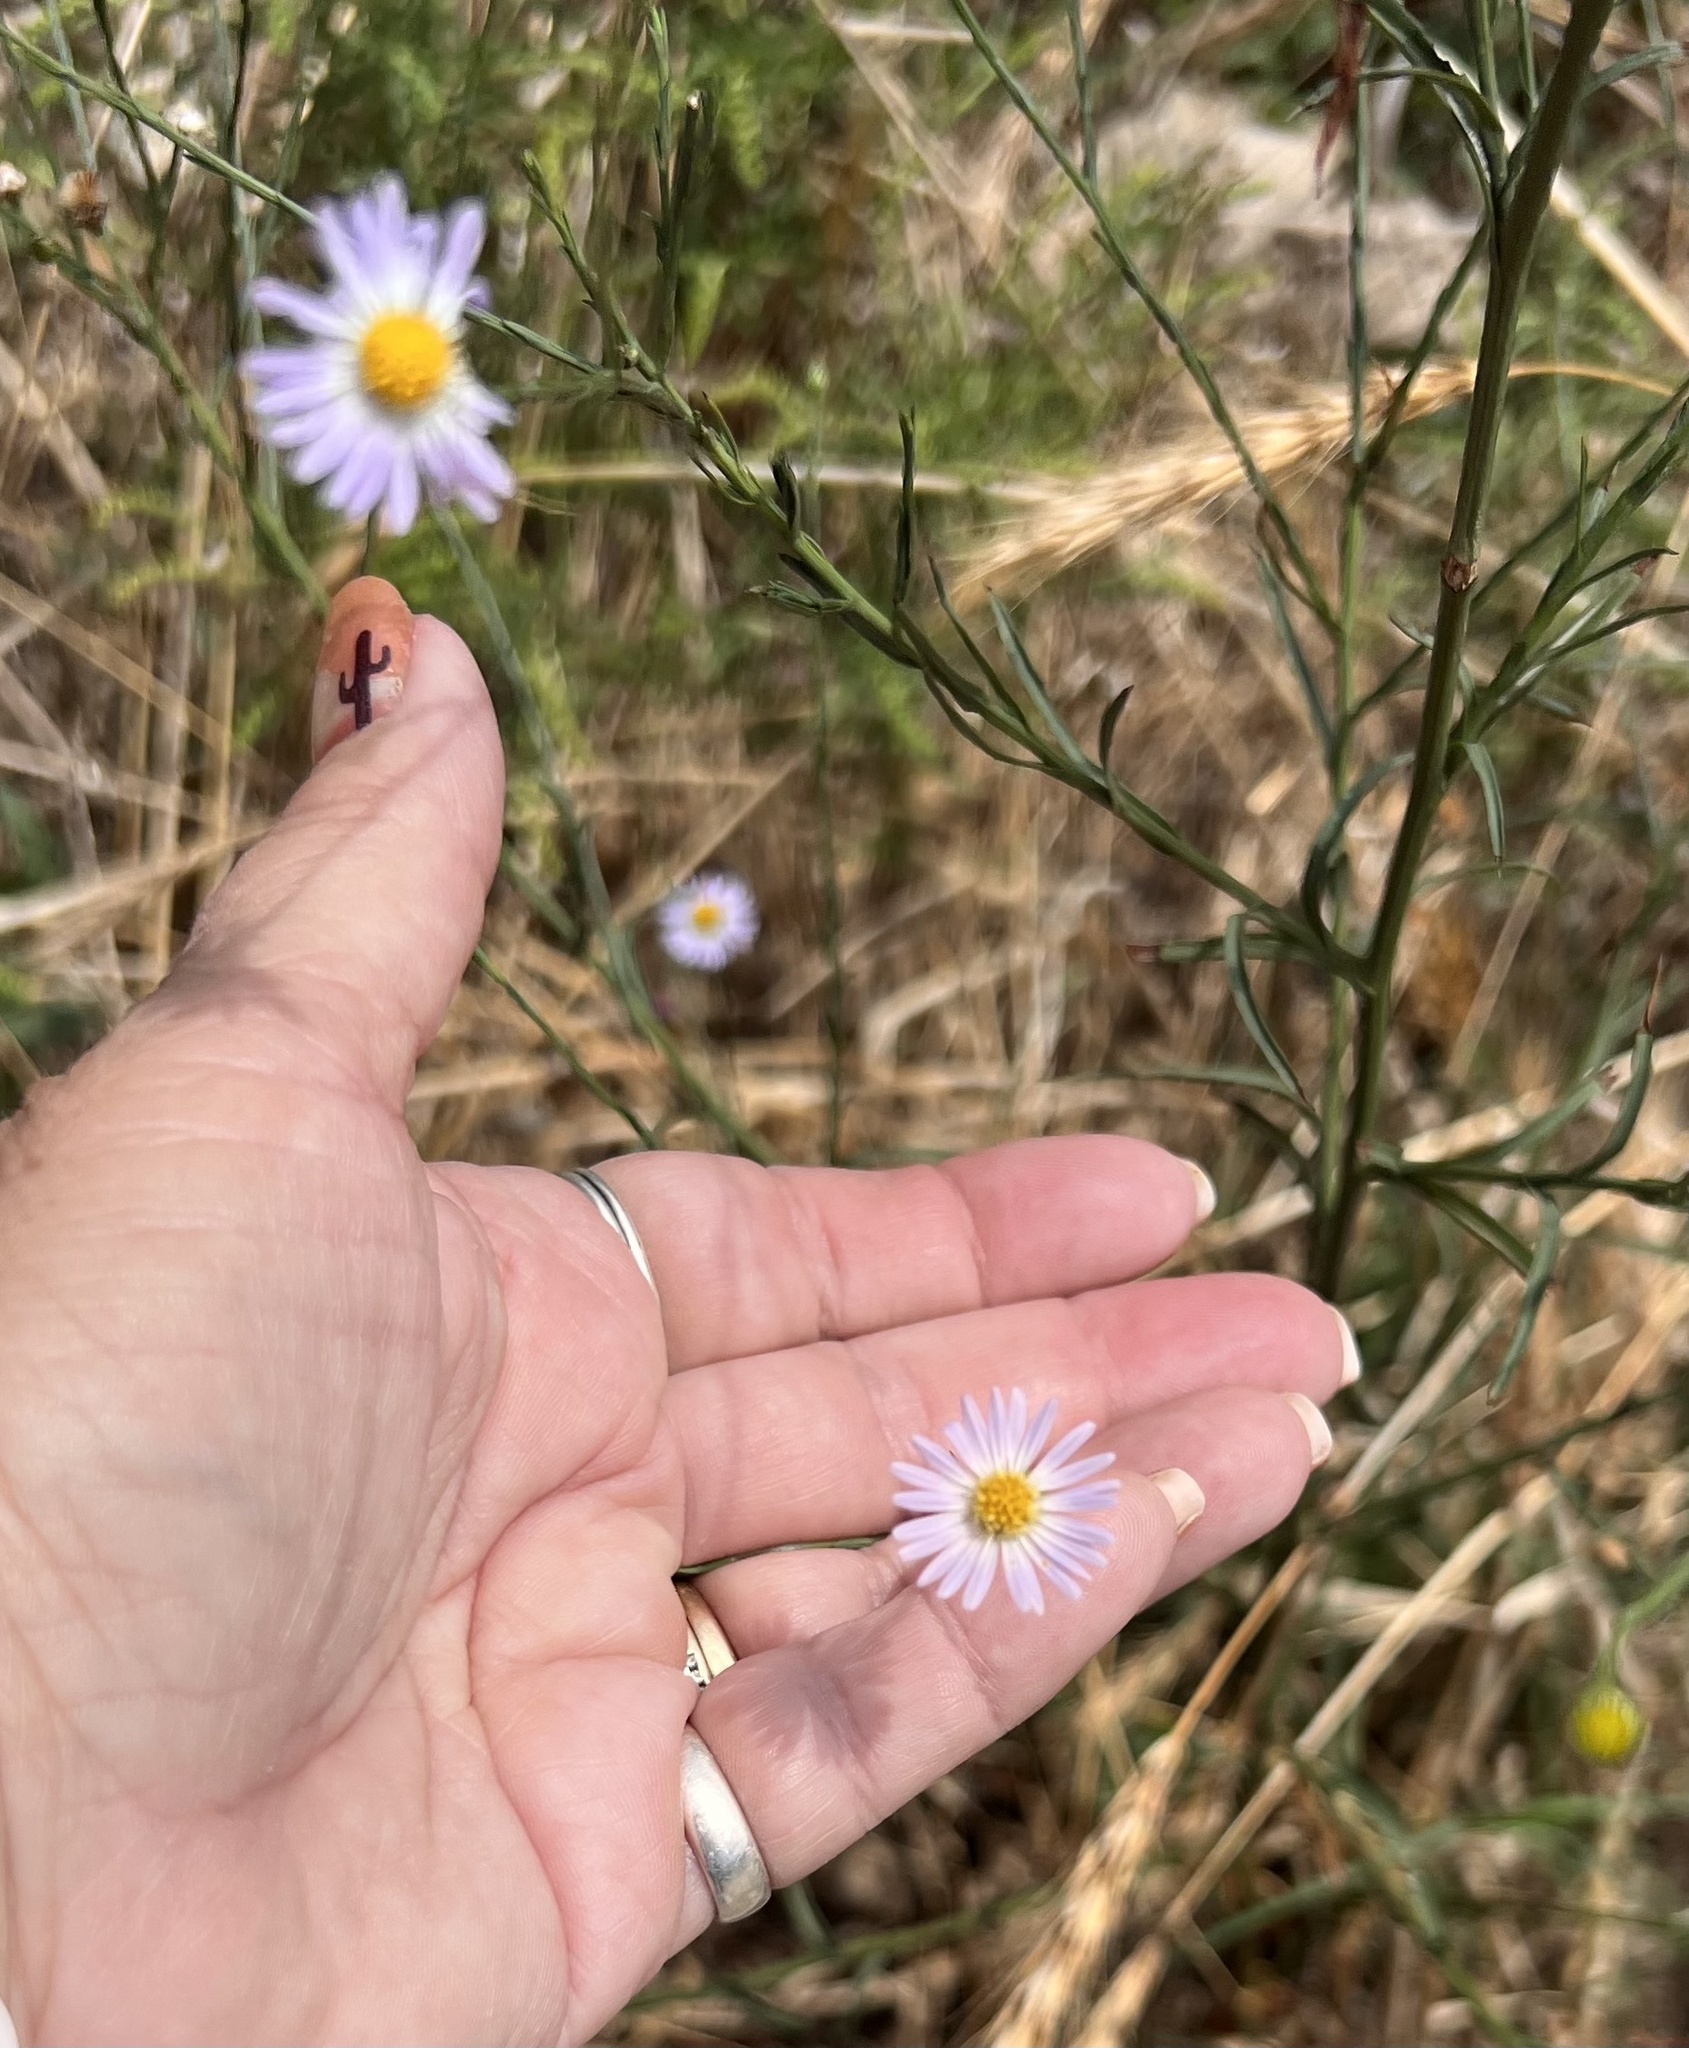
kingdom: Plantae
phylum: Tracheophyta
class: Magnoliopsida
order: Asterales
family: Asteraceae
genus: Symphyotrichum
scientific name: Symphyotrichum divaricatum
